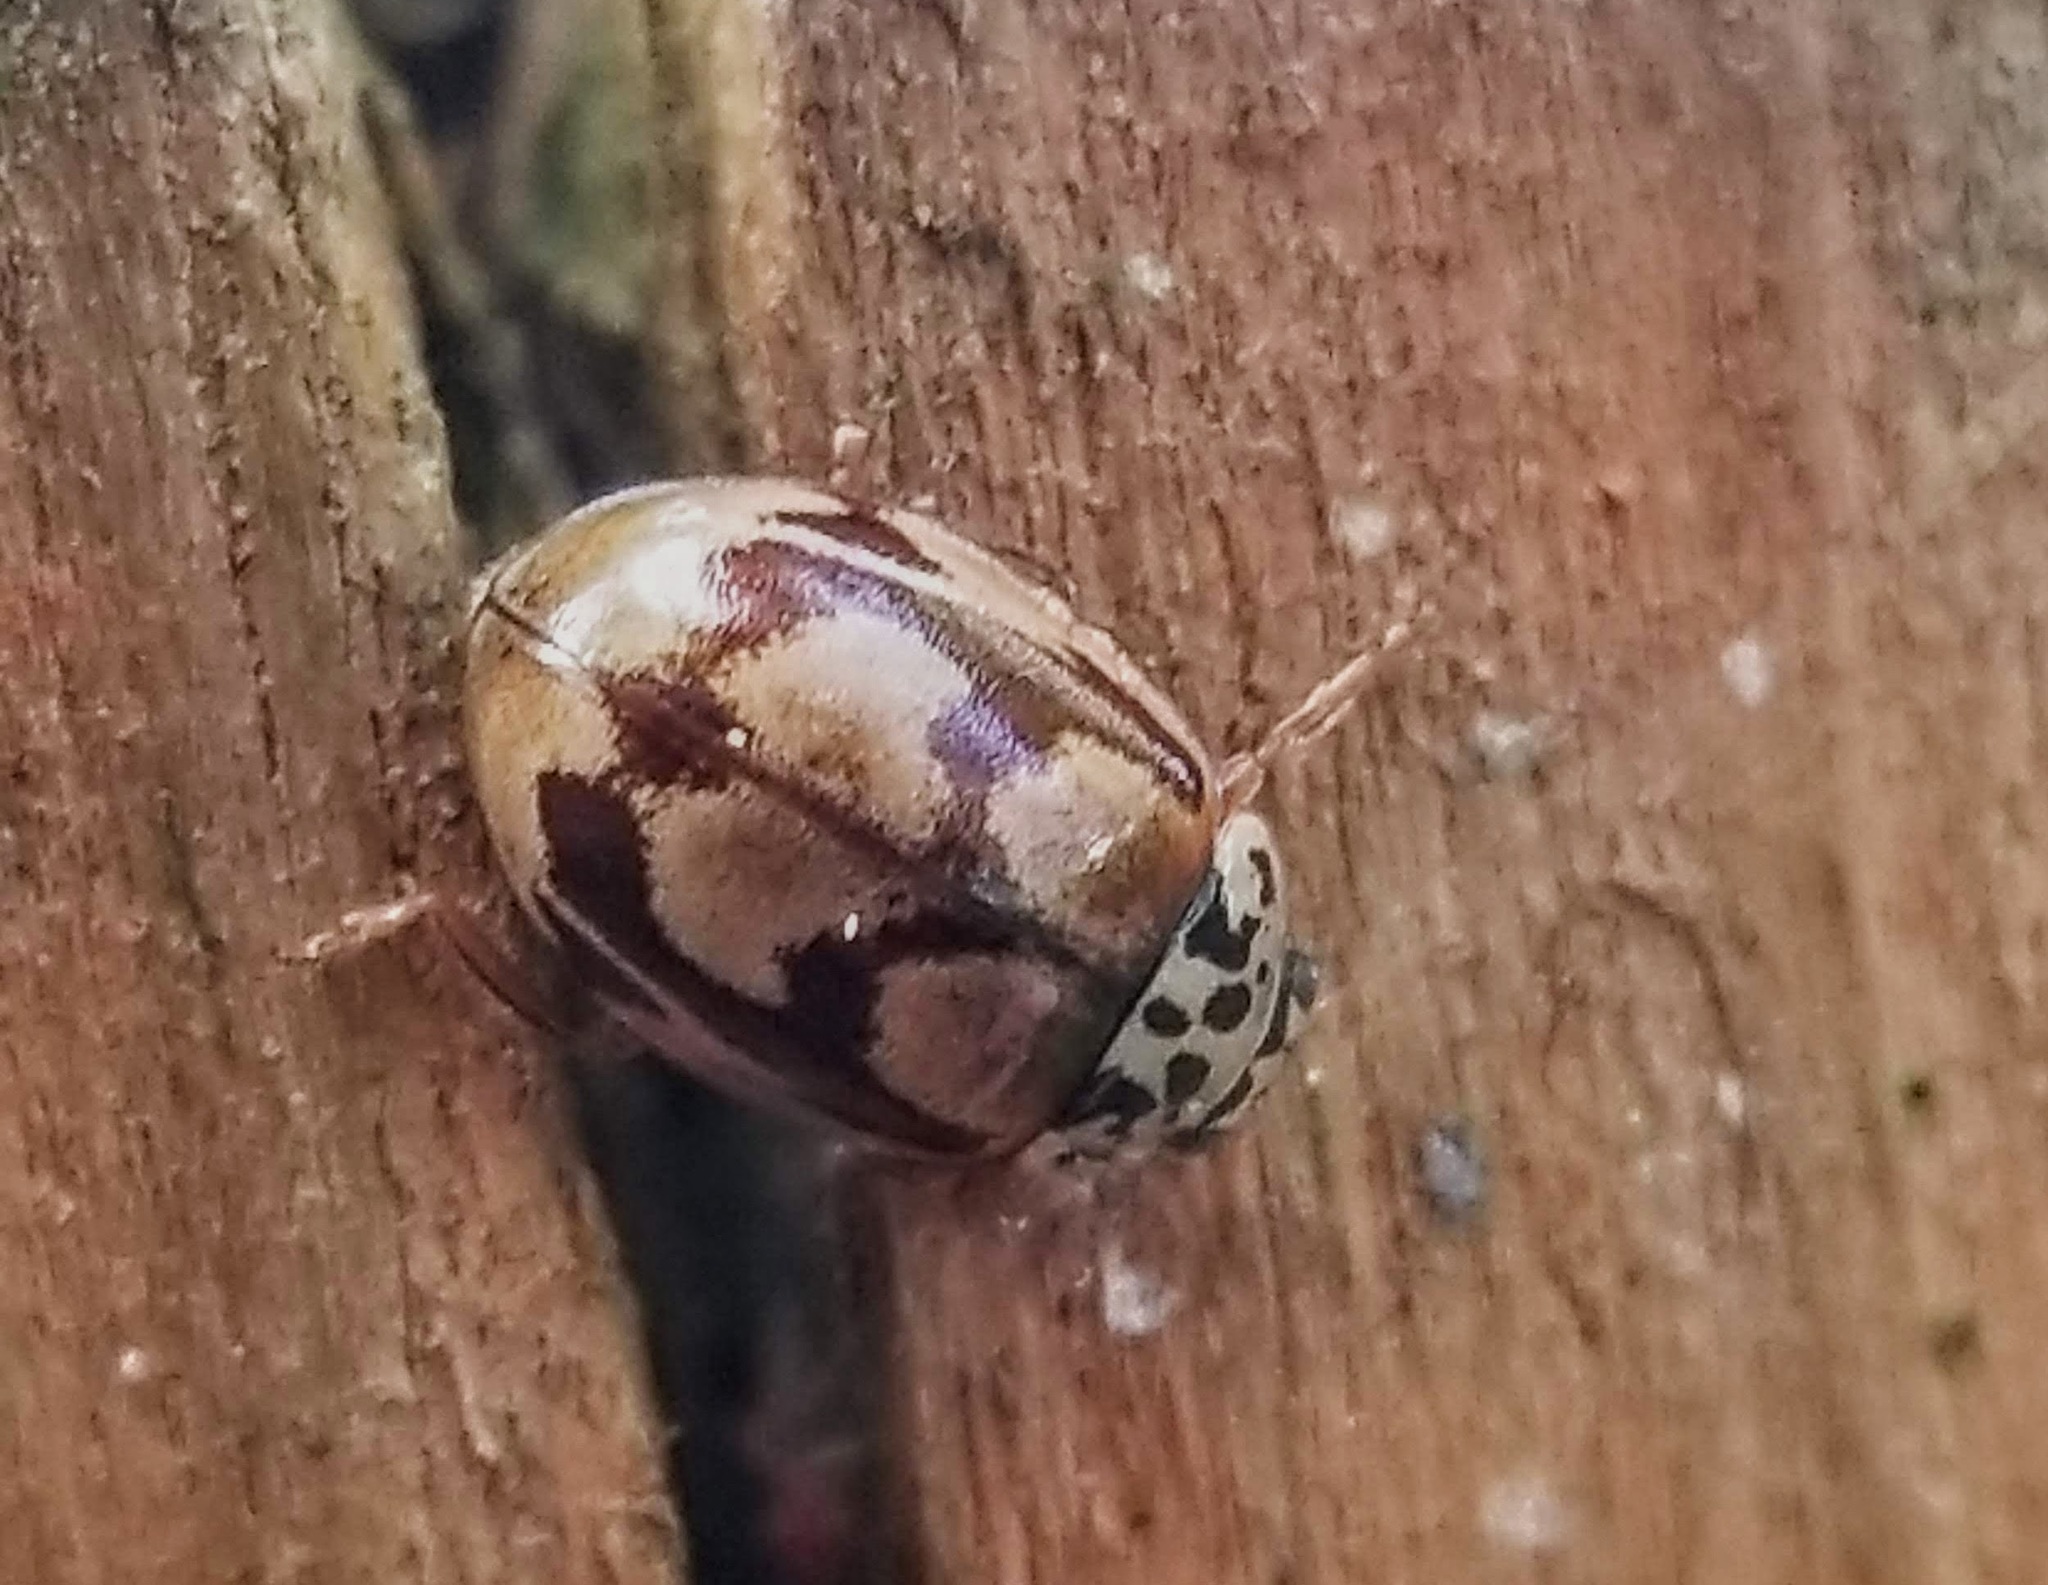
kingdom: Animalia
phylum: Arthropoda
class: Insecta
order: Coleoptera
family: Coccinellidae
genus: Mulsantina
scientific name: Mulsantina picta
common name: Painted ladybird
